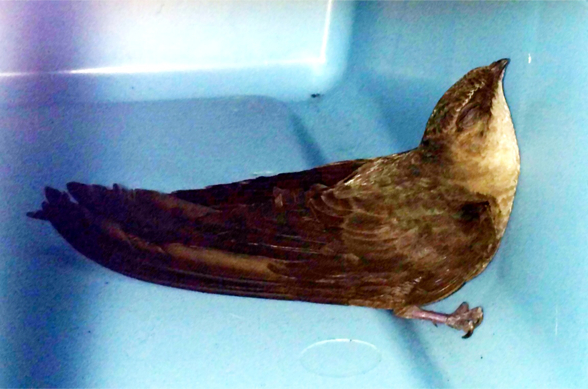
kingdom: Animalia
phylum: Chordata
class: Aves
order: Apodiformes
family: Apodidae
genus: Chaetura
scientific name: Chaetura pelagica
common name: Chimney swift
